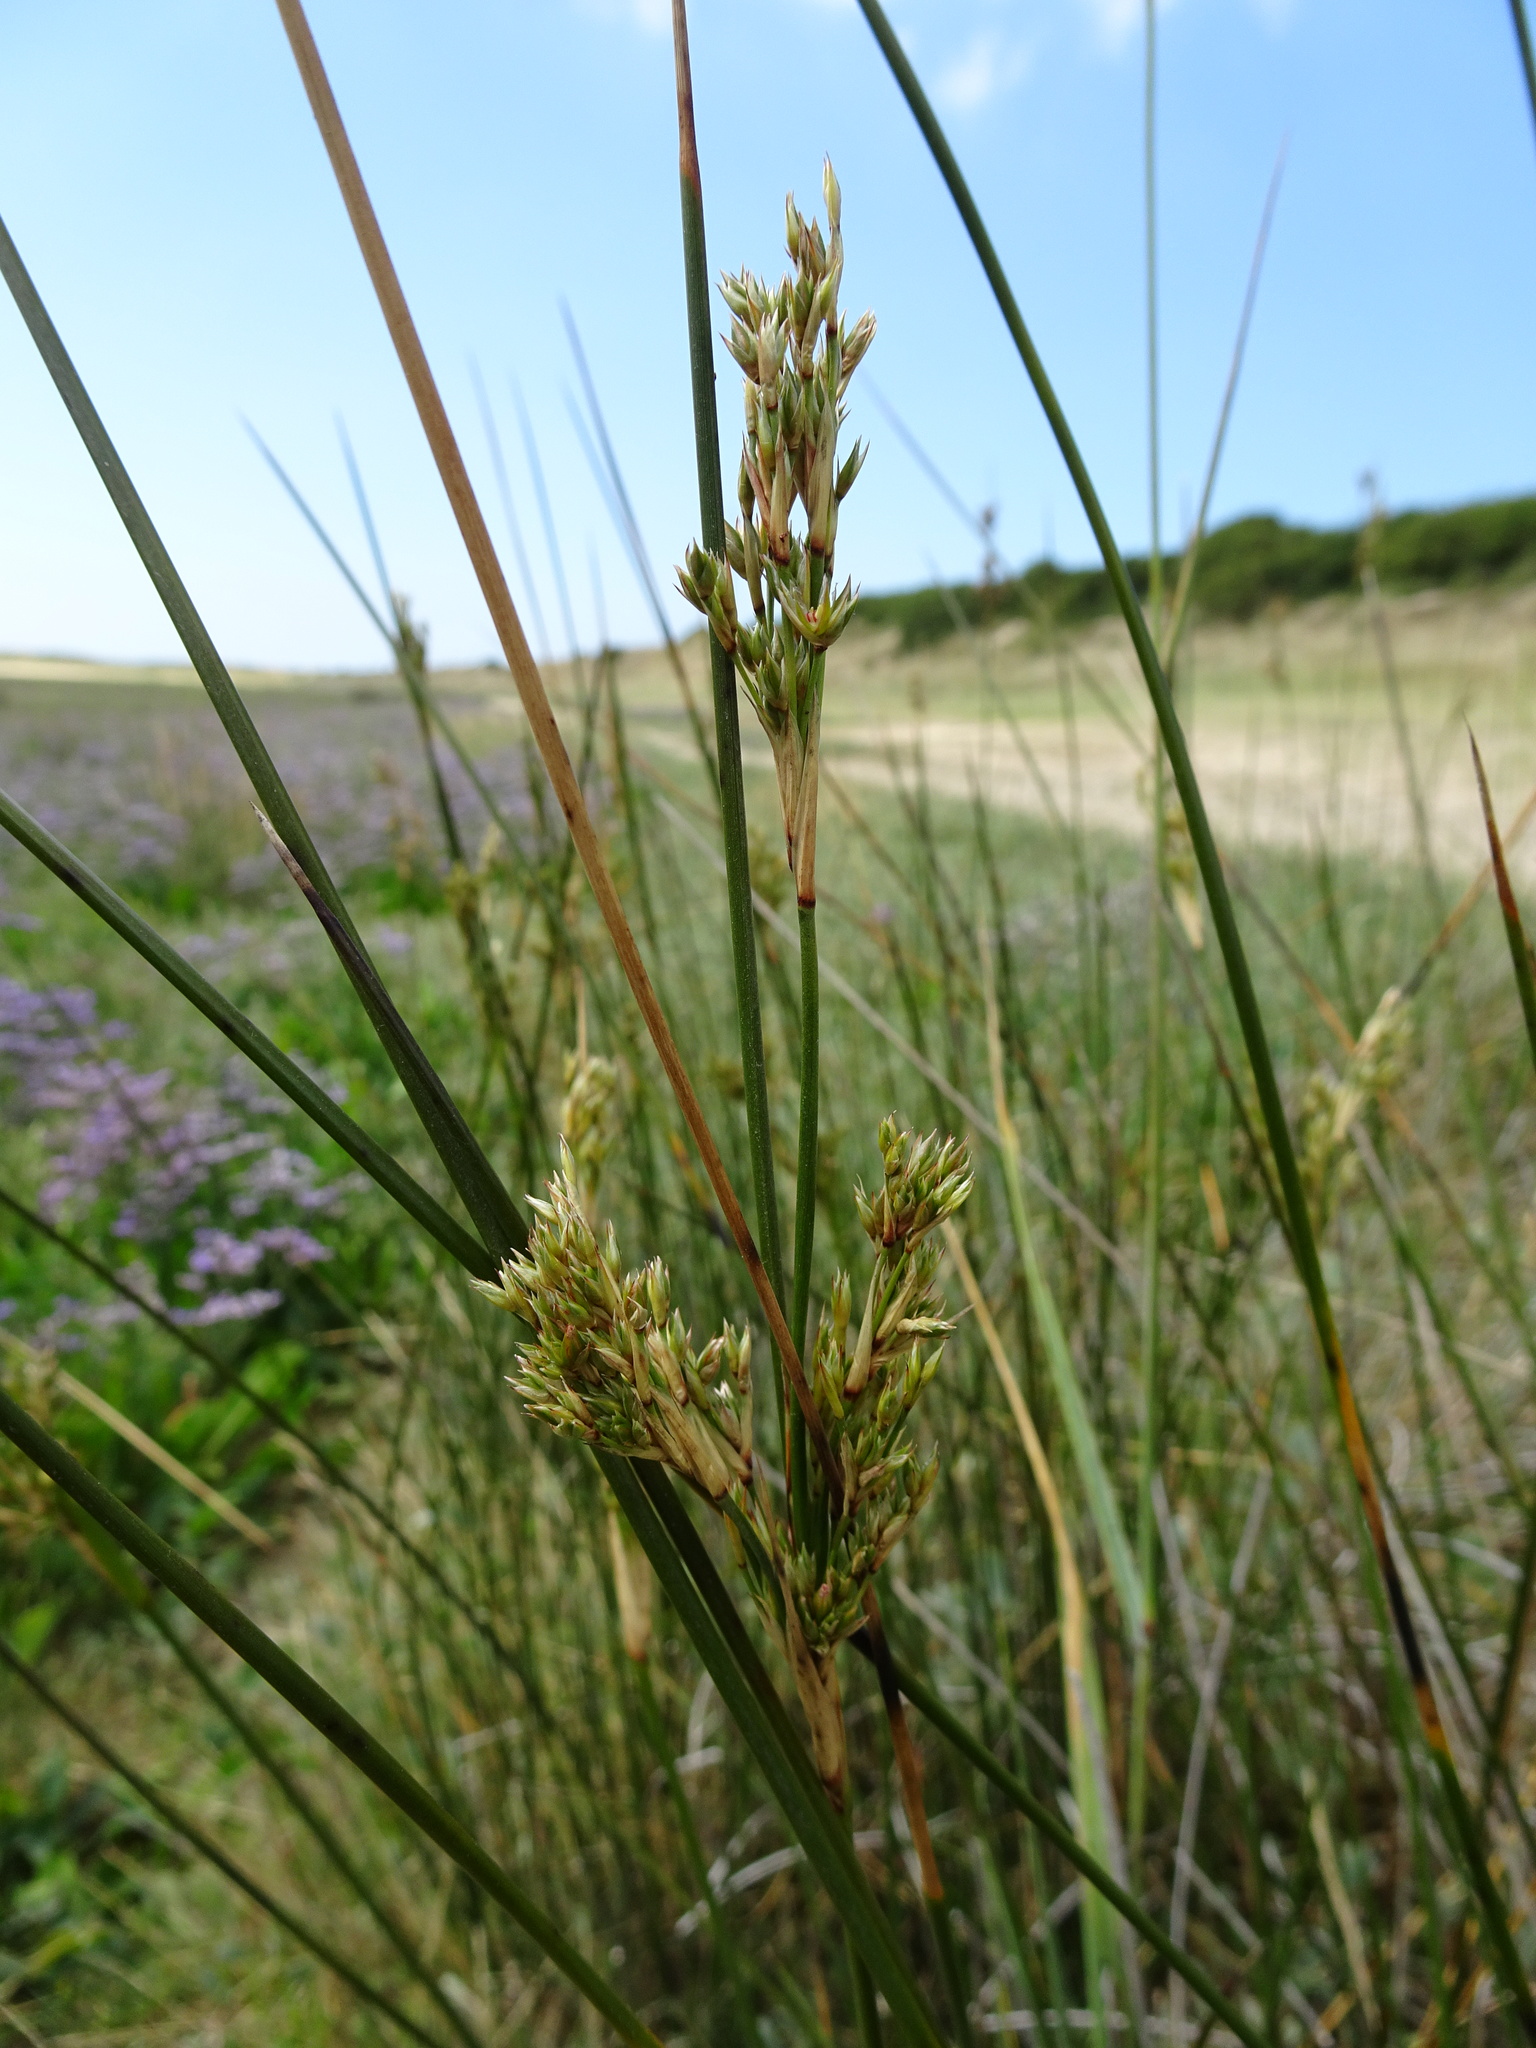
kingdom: Plantae
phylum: Tracheophyta
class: Liliopsida
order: Poales
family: Juncaceae
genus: Juncus
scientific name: Juncus maritimus
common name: Sea rush
